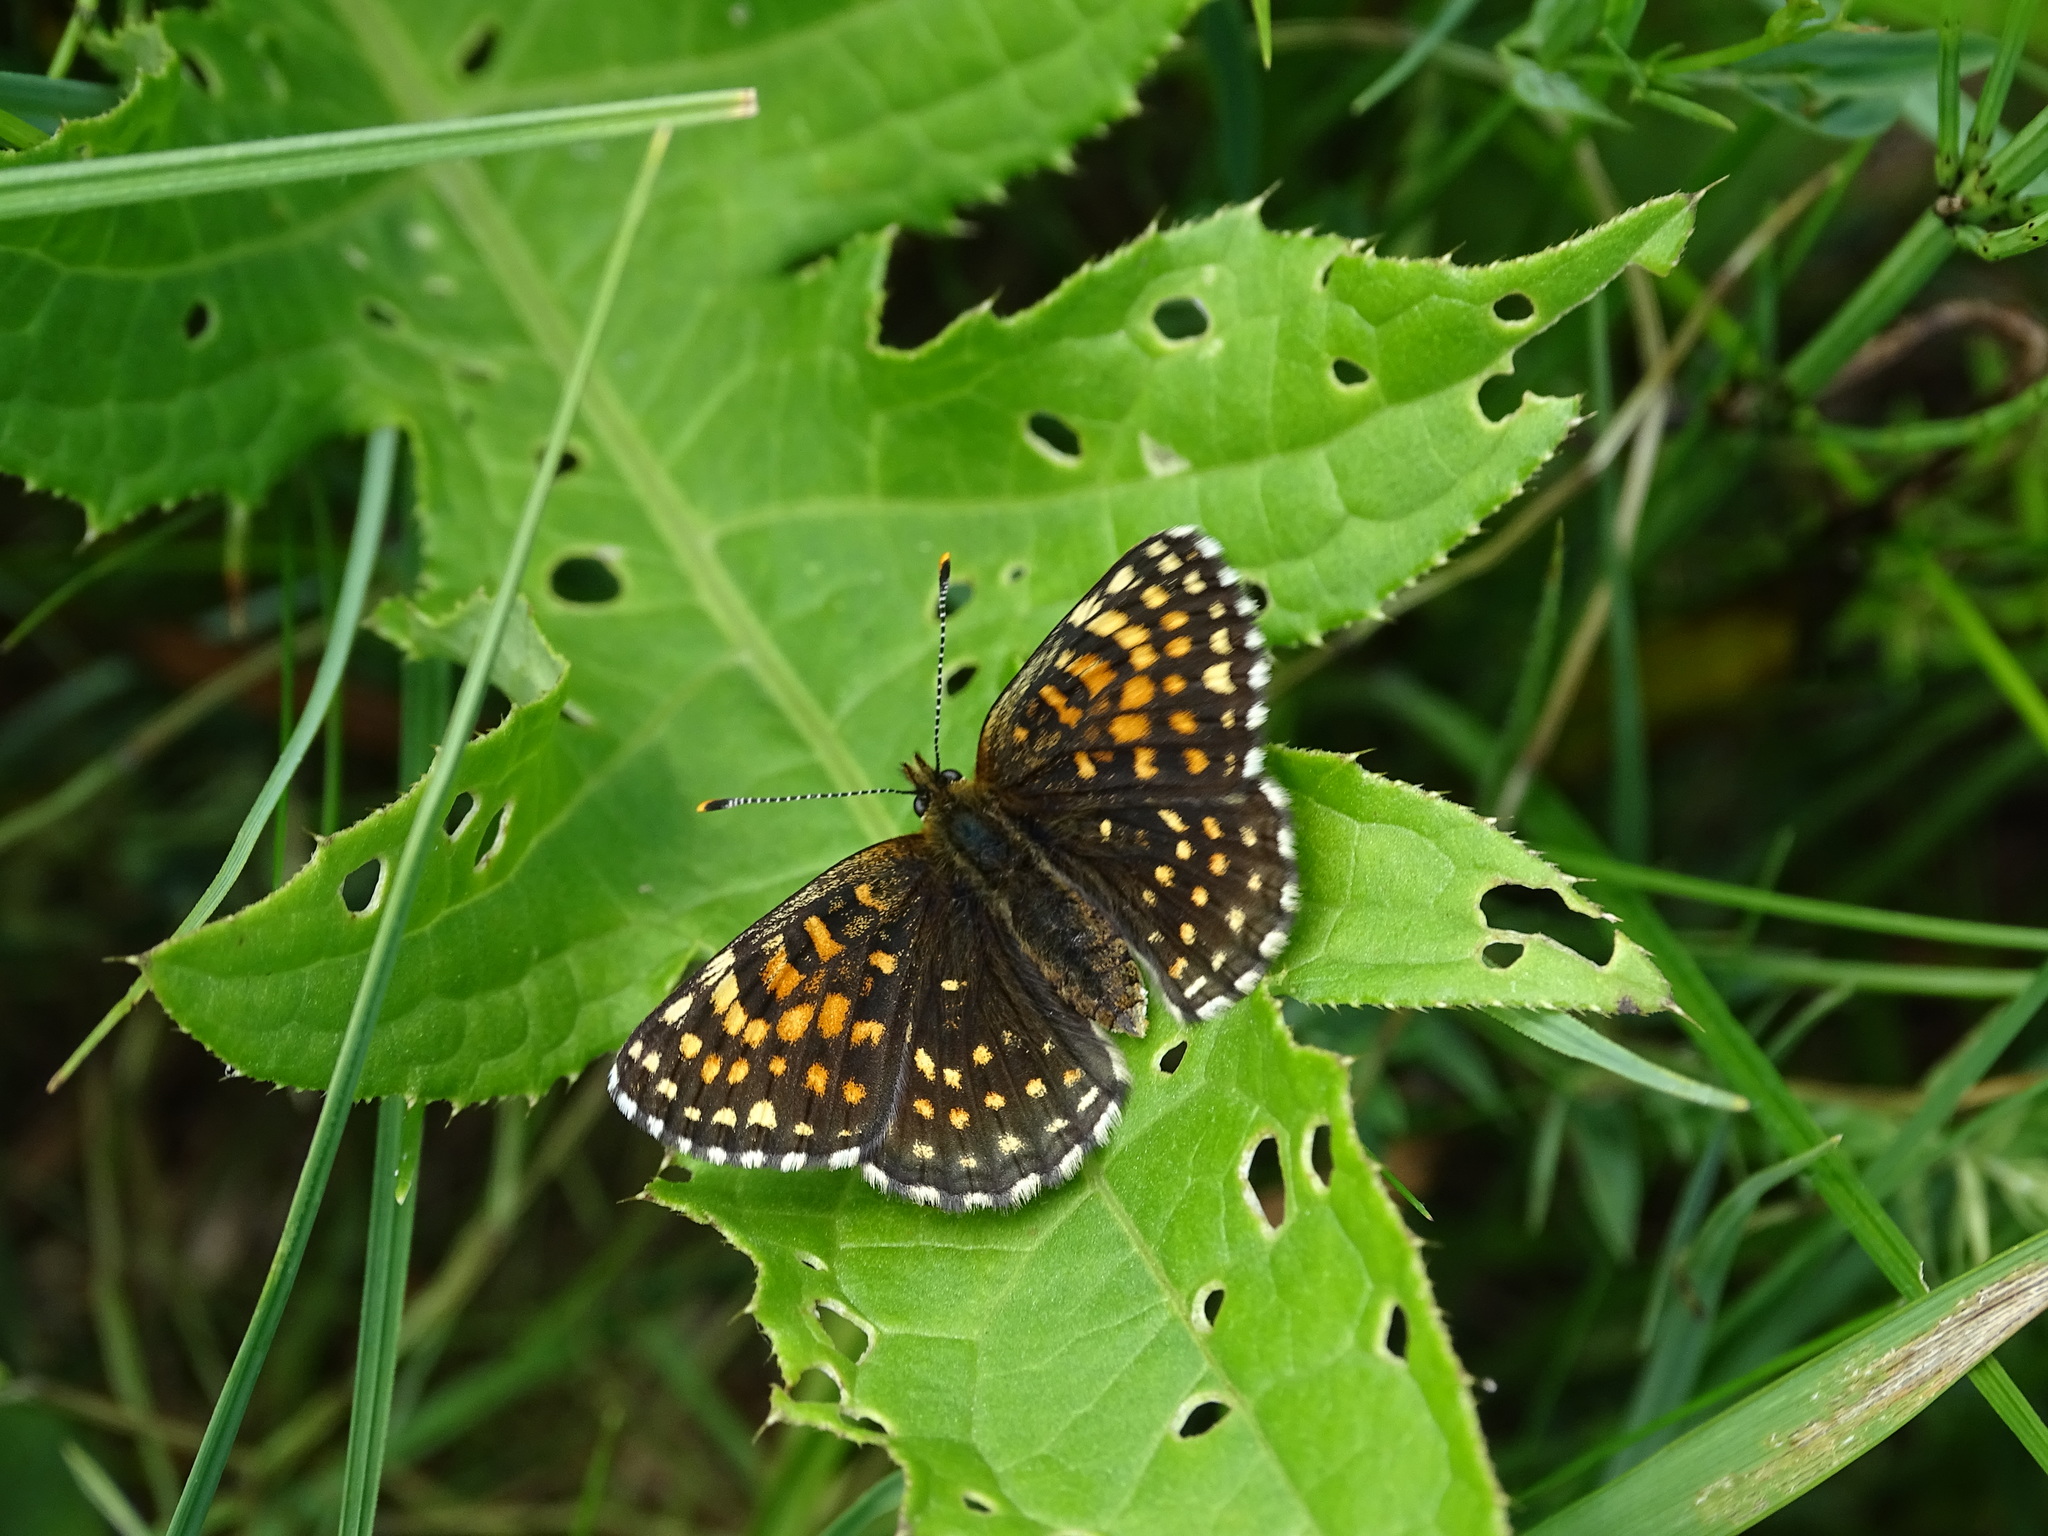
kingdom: Animalia
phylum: Arthropoda
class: Insecta
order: Lepidoptera
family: Nymphalidae
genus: Melitaea
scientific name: Melitaea diamina
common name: False heath fritillary
